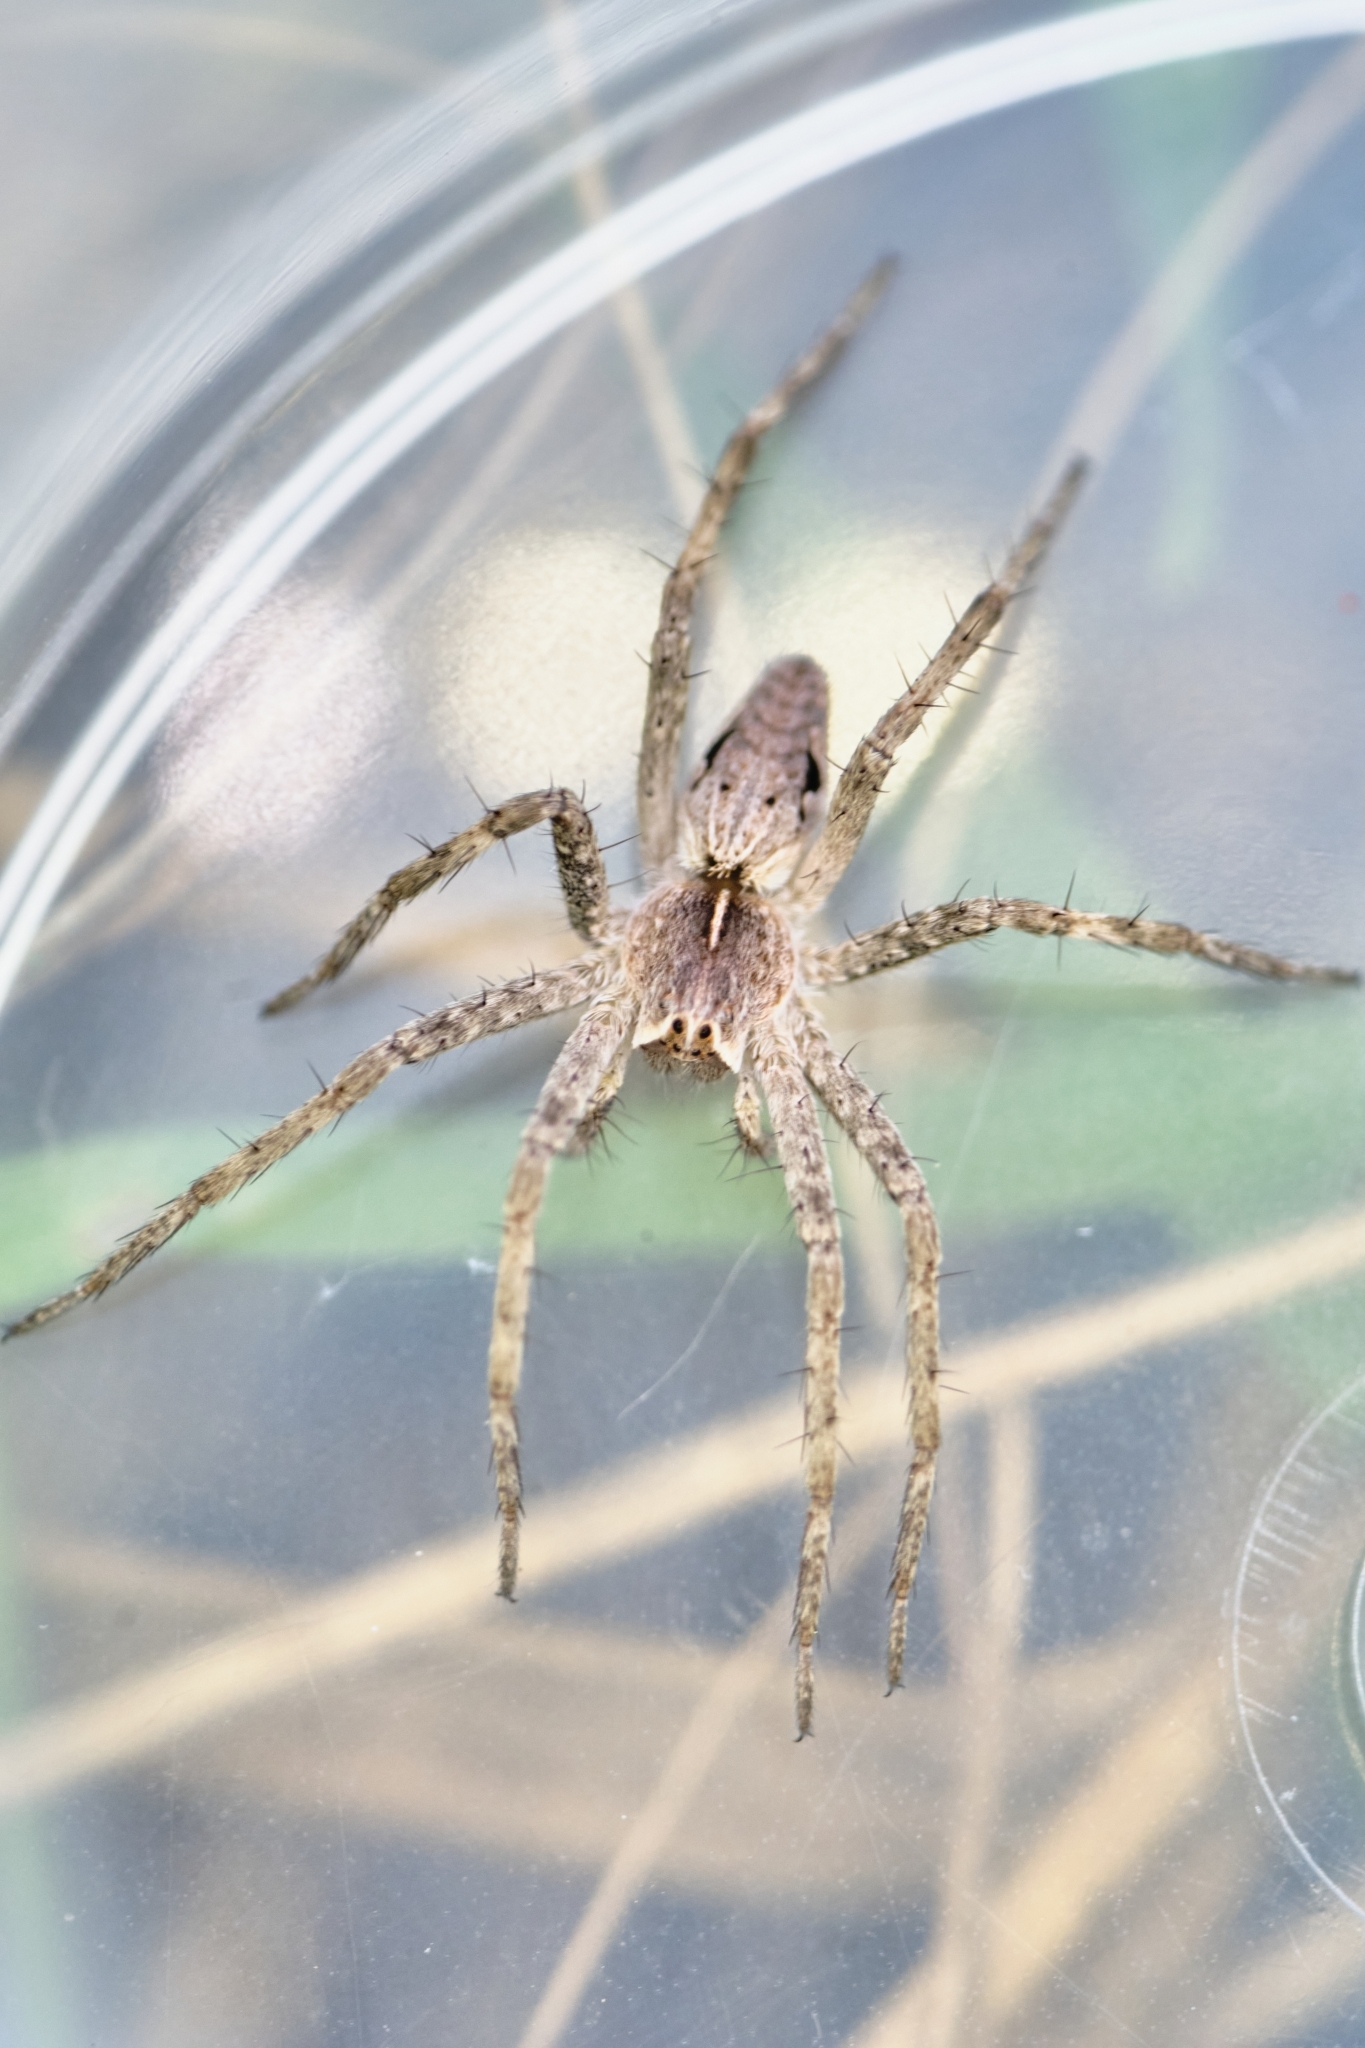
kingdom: Animalia
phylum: Arthropoda
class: Arachnida
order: Araneae
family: Pisauridae
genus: Pisaura
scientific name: Pisaura
